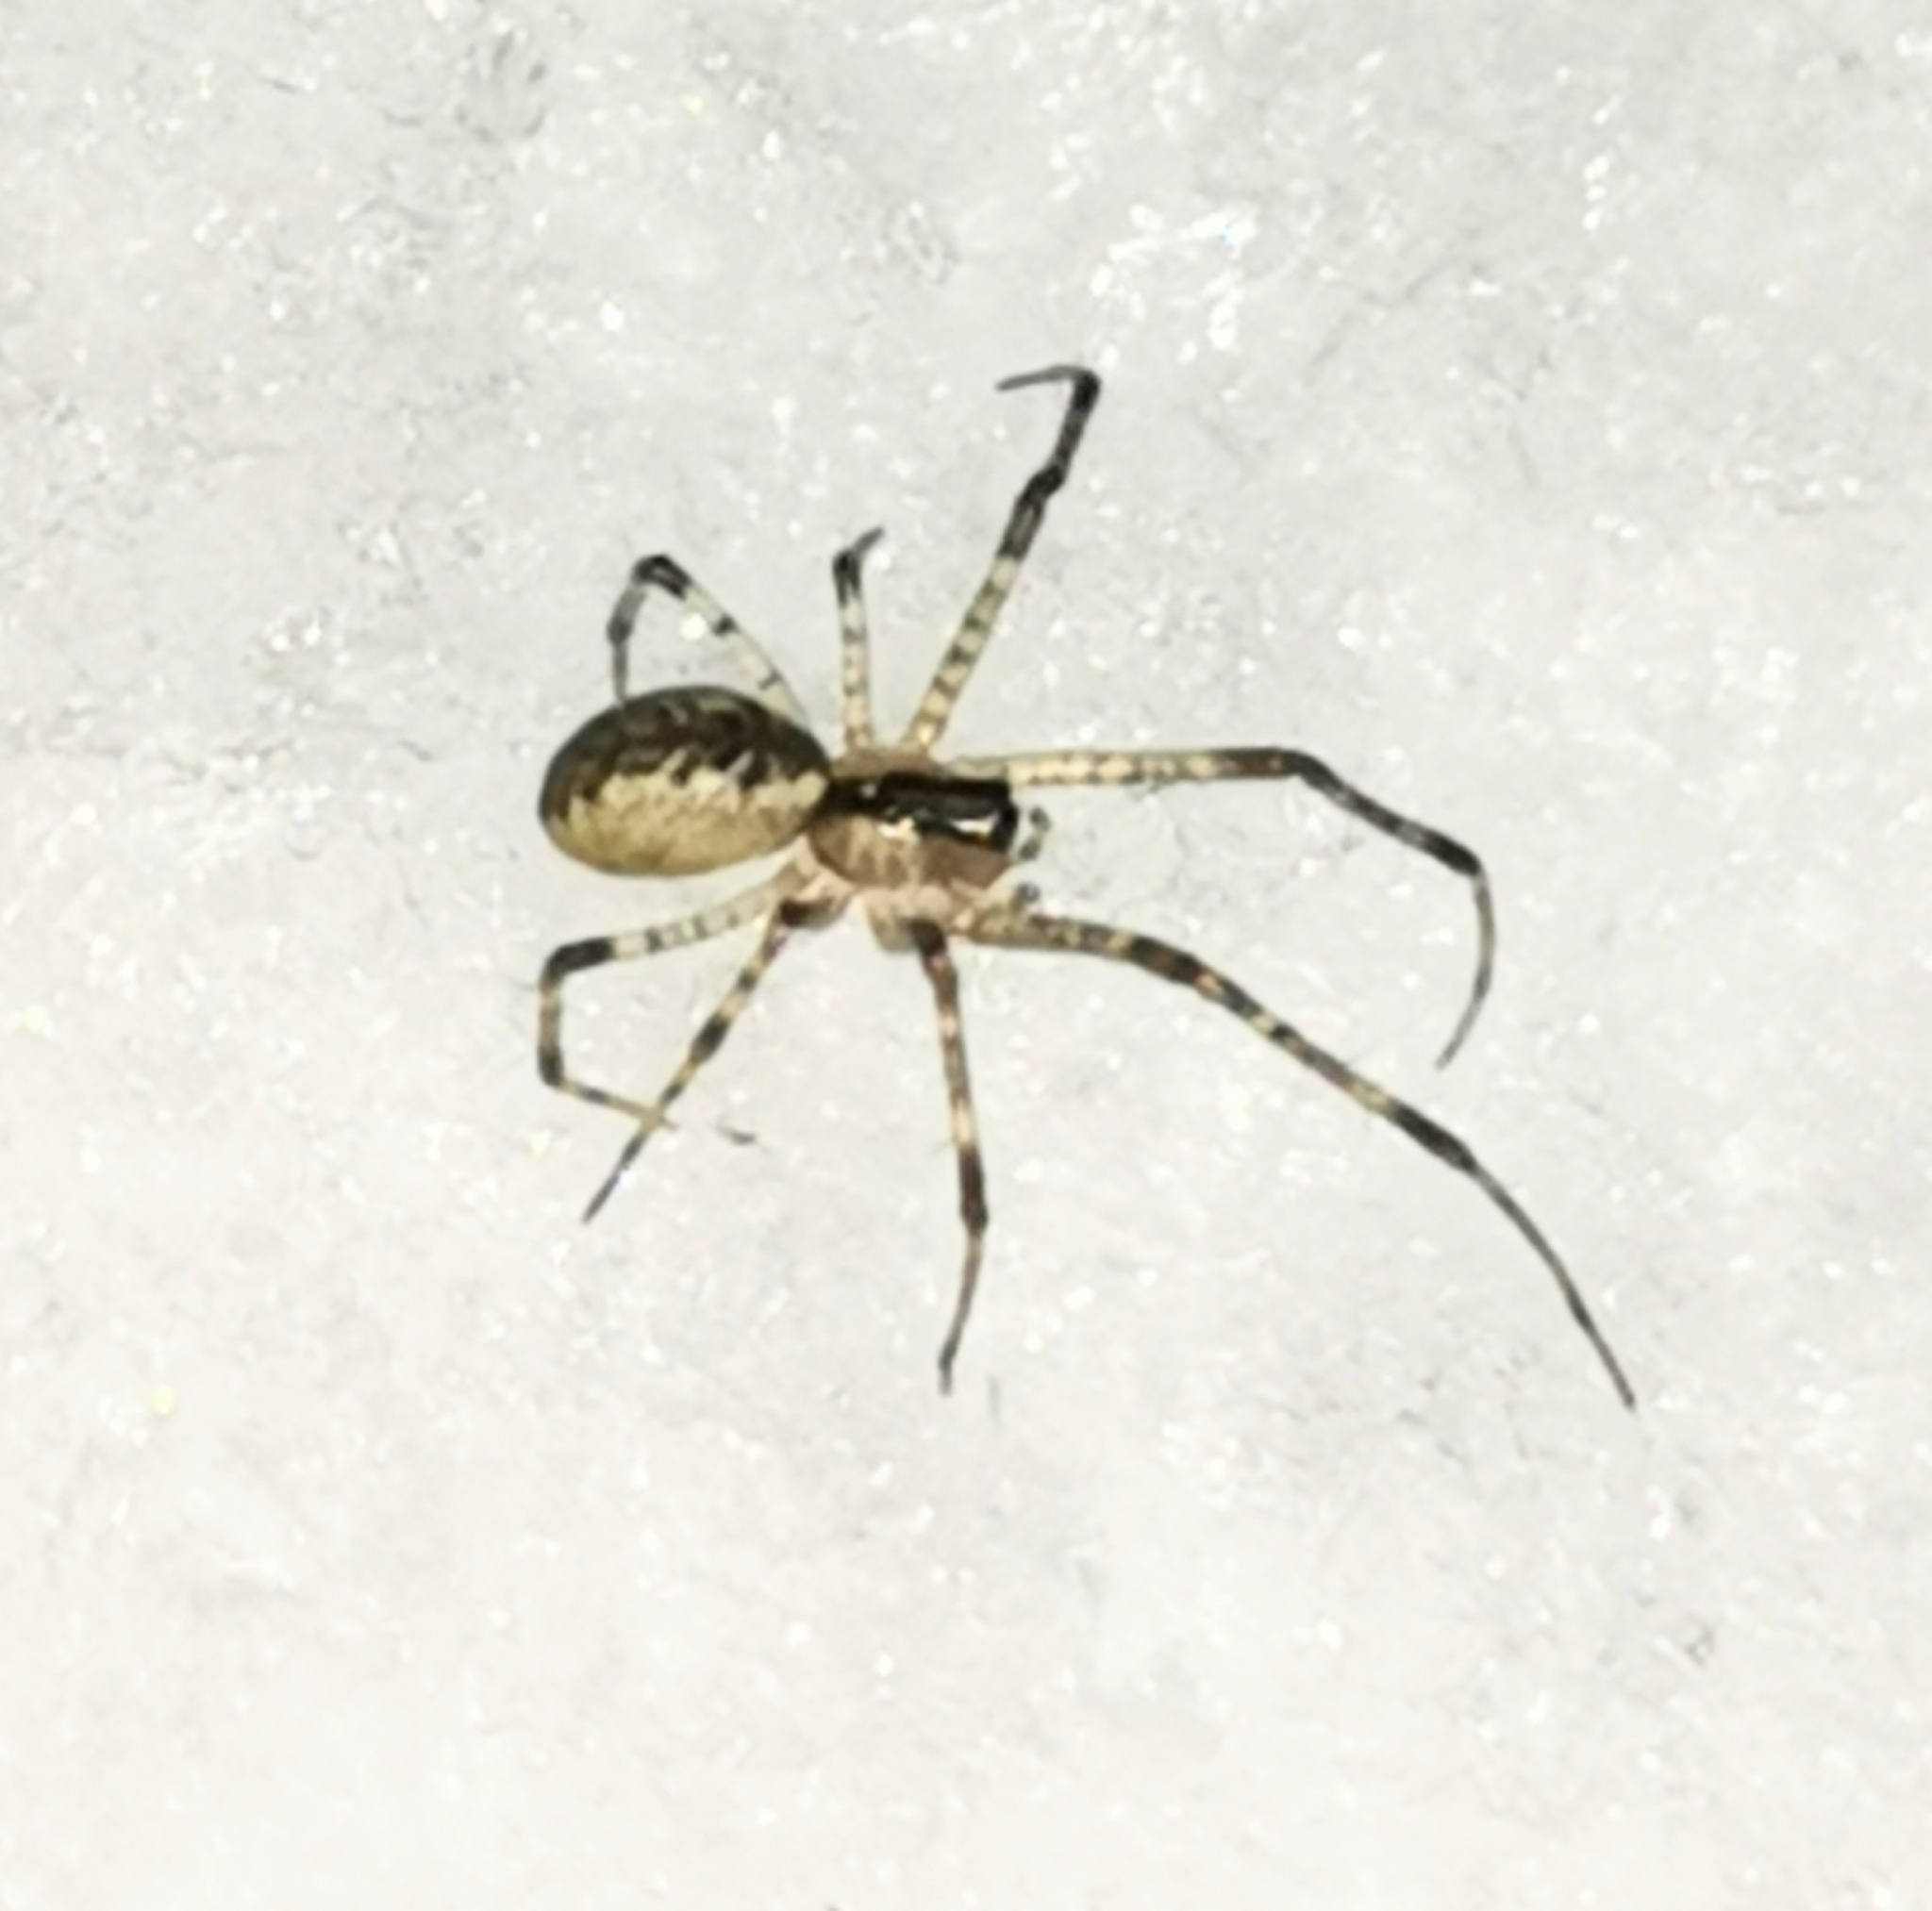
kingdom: Animalia
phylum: Arthropoda
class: Arachnida
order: Araneae
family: Linyphiidae
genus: Pityohyphantes
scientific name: Pityohyphantes phrygianus
